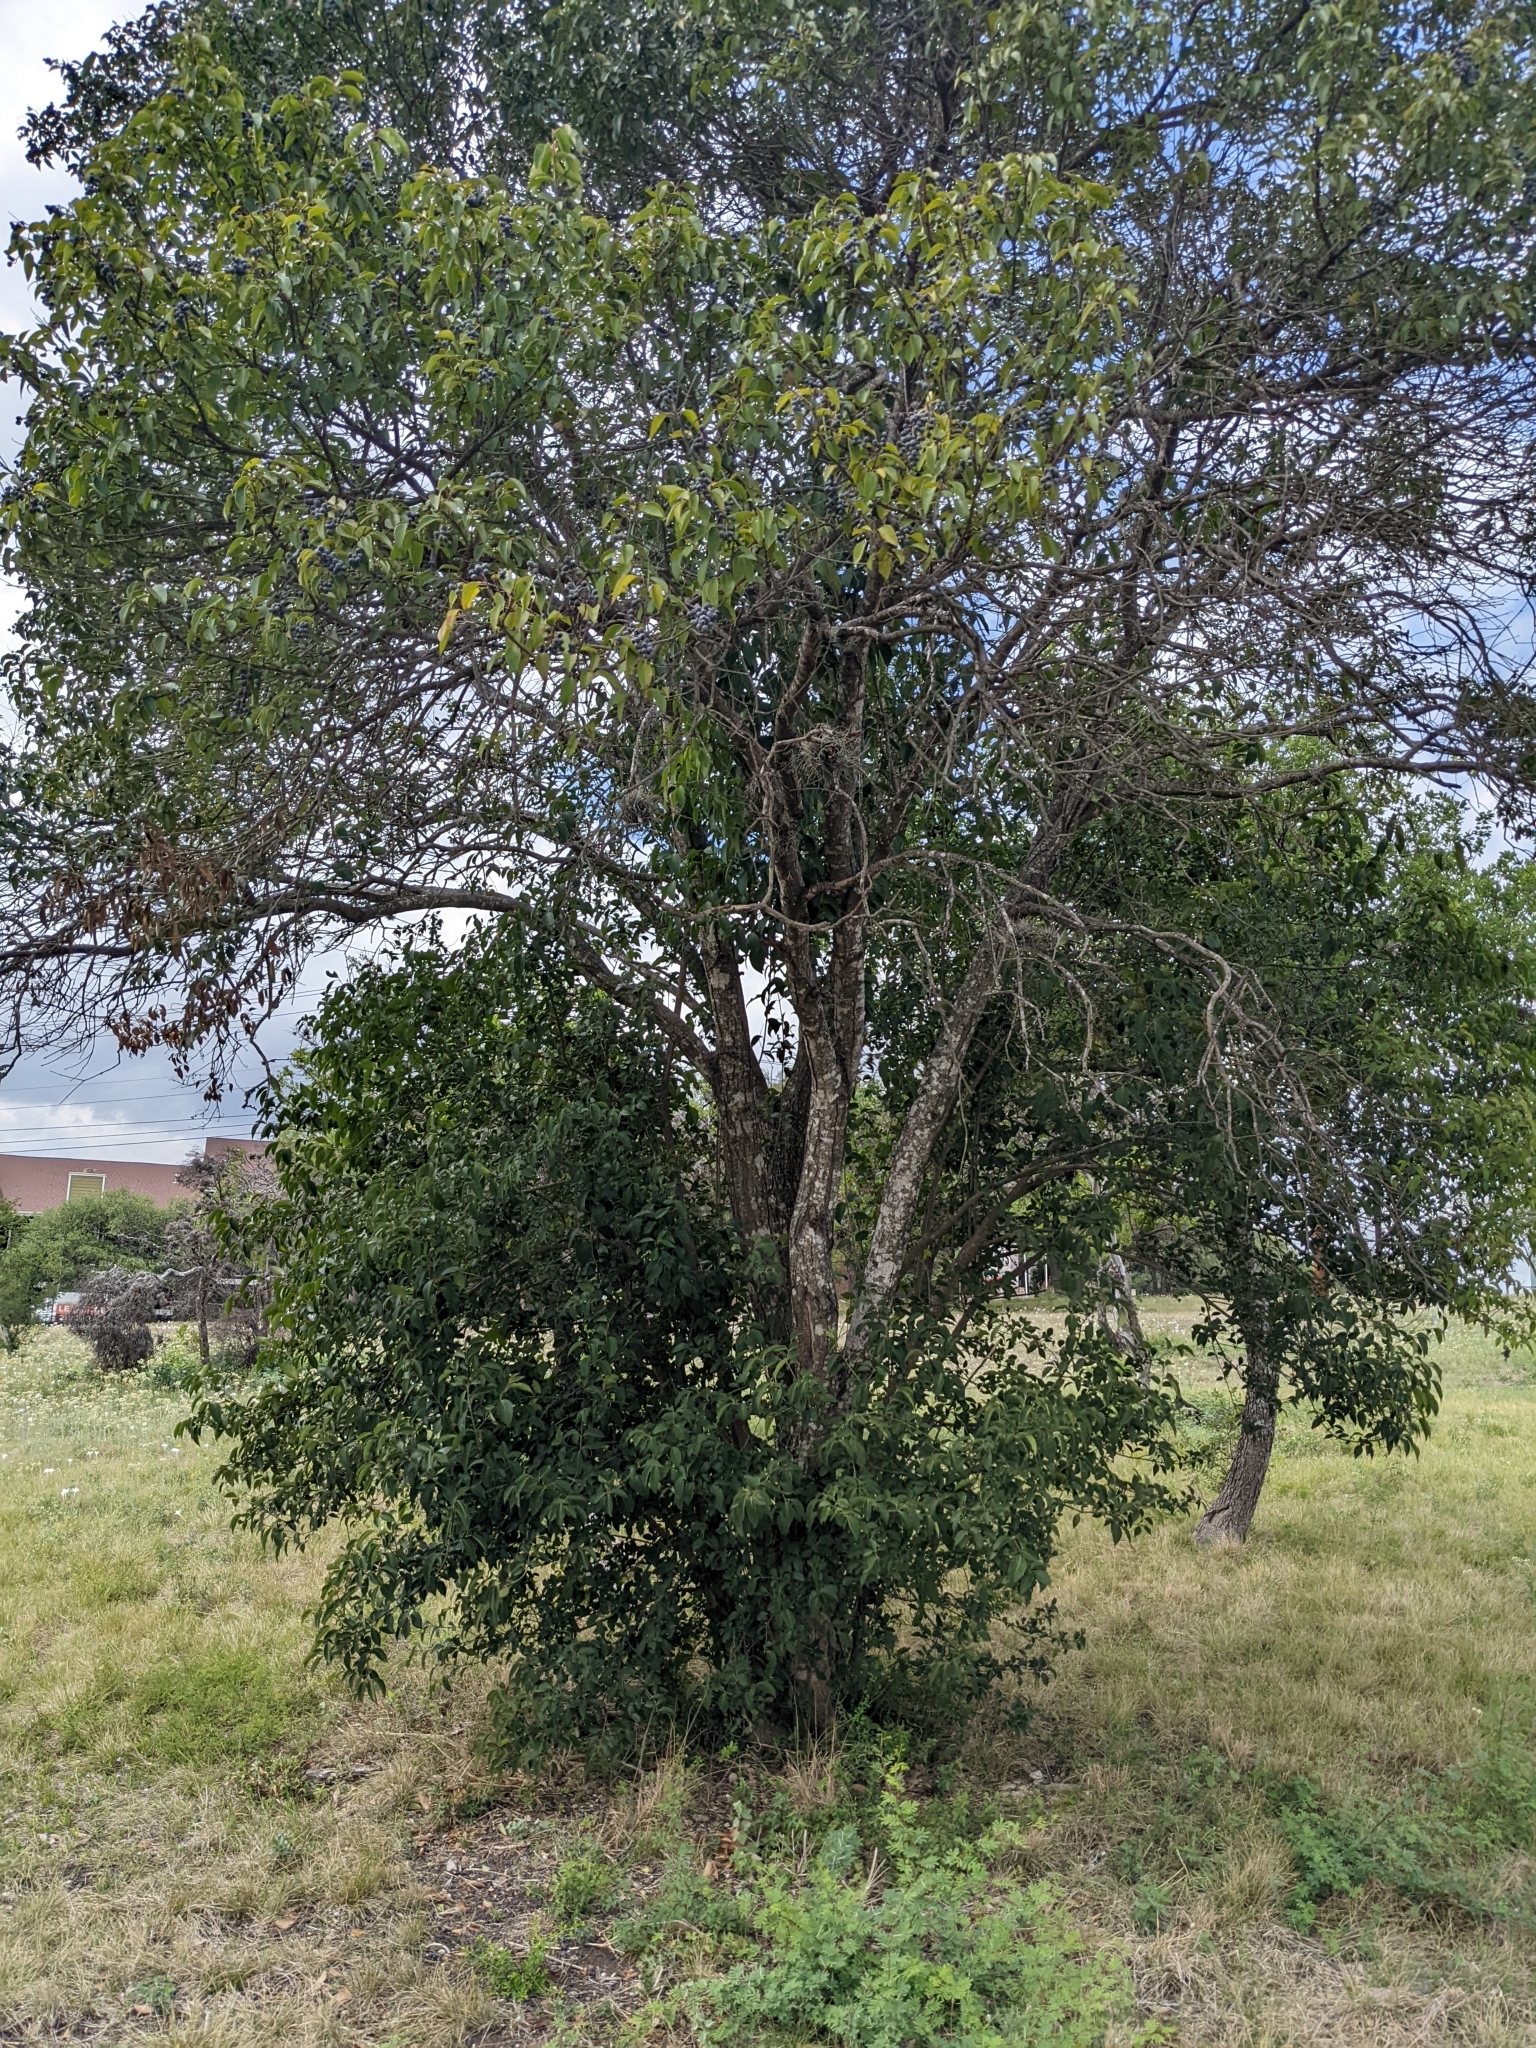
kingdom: Plantae
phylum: Tracheophyta
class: Magnoliopsida
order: Lamiales
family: Oleaceae
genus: Ligustrum
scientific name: Ligustrum lucidum
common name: Glossy privet
